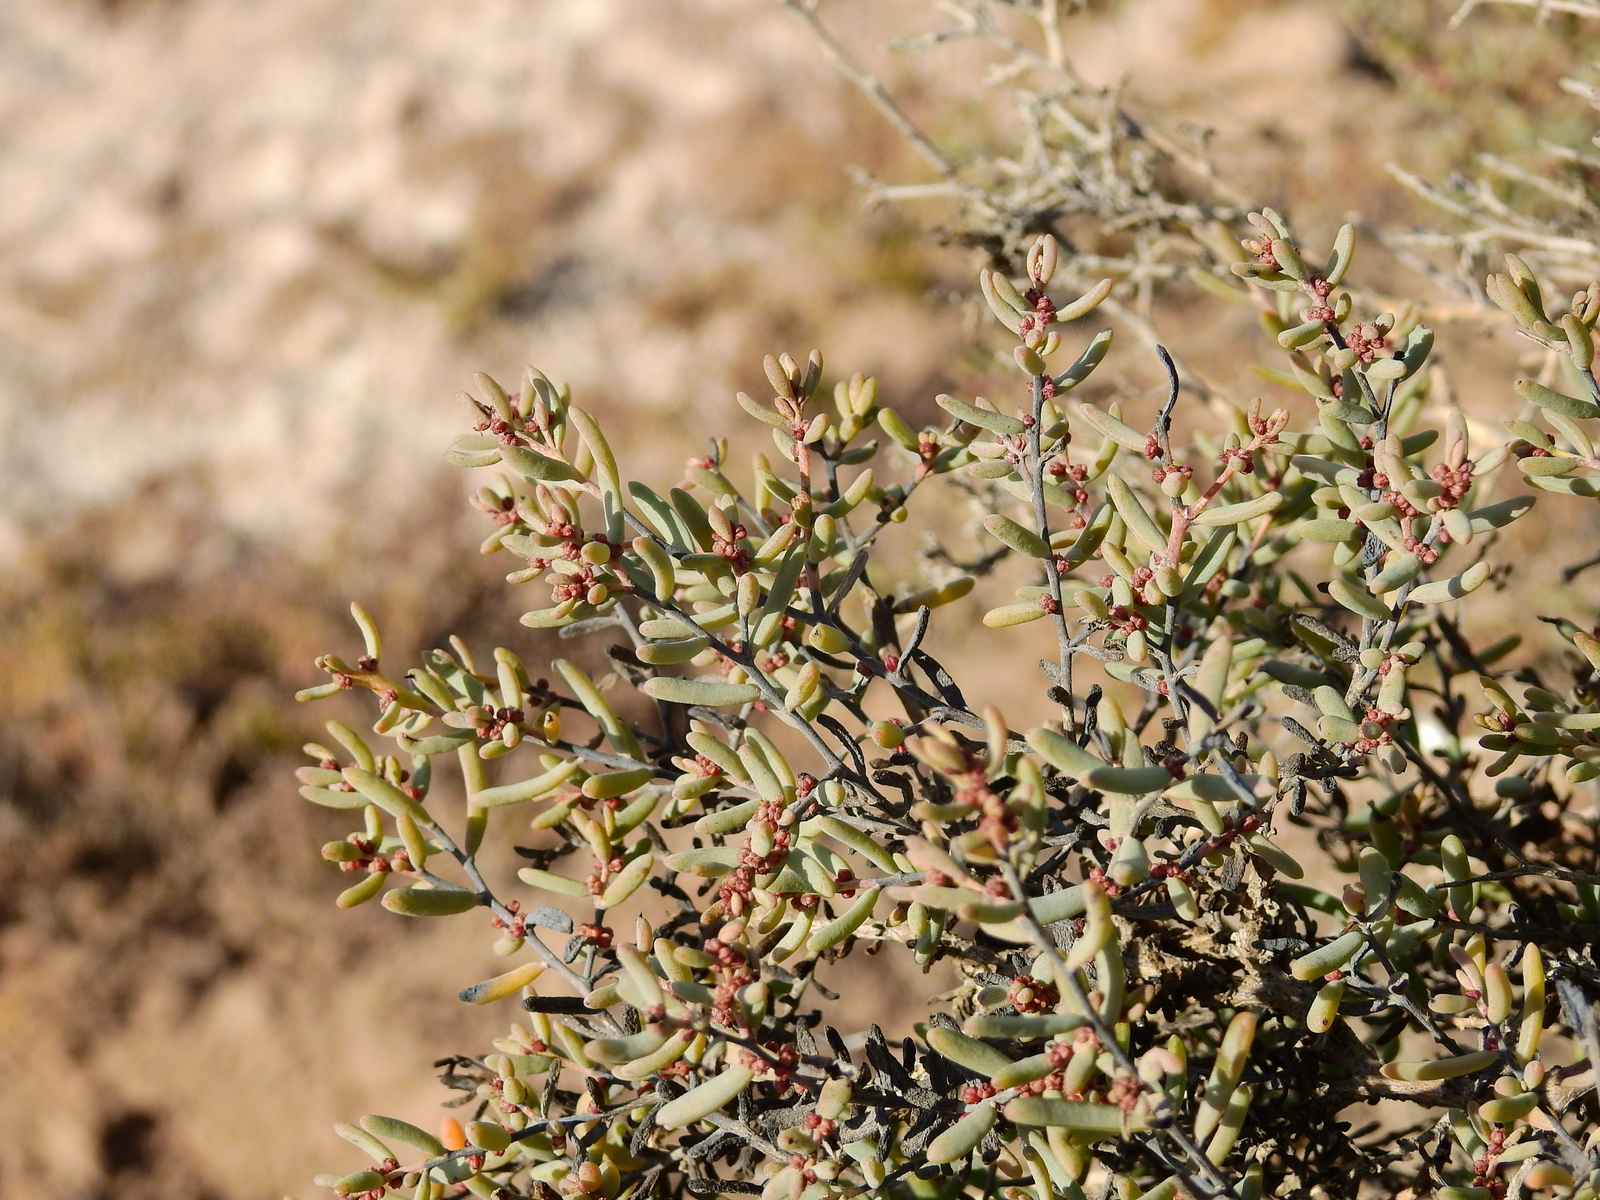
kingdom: Plantae
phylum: Tracheophyta
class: Magnoliopsida
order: Caryophyllales
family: Amaranthaceae
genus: Suaeda
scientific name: Suaeda divaricata
